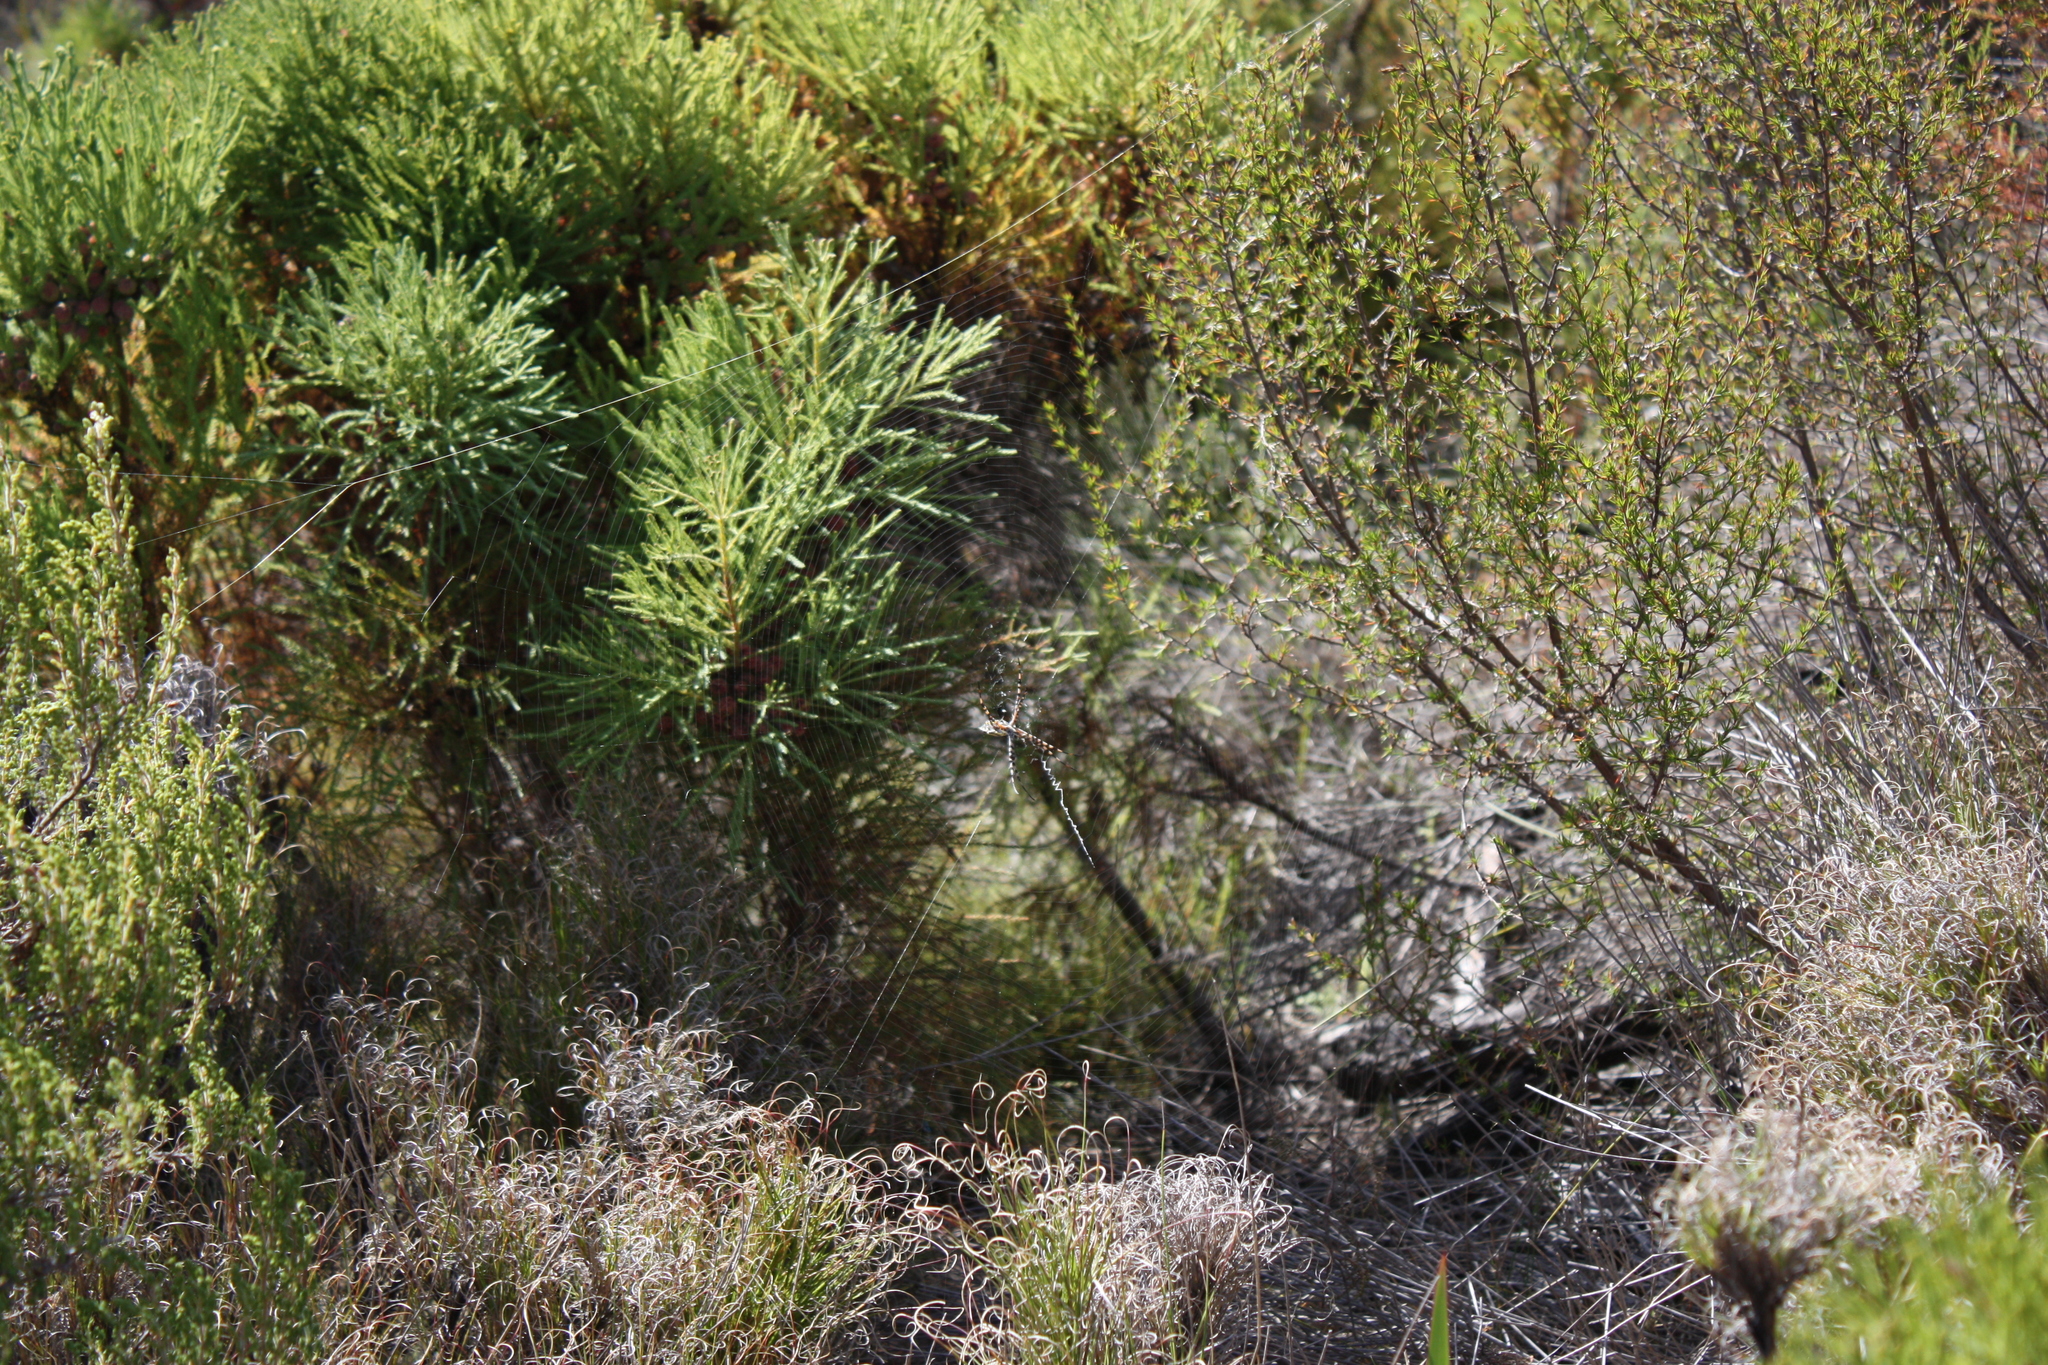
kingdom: Animalia
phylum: Arthropoda
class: Arachnida
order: Araneae
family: Araneidae
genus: Argiope
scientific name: Argiope australis
